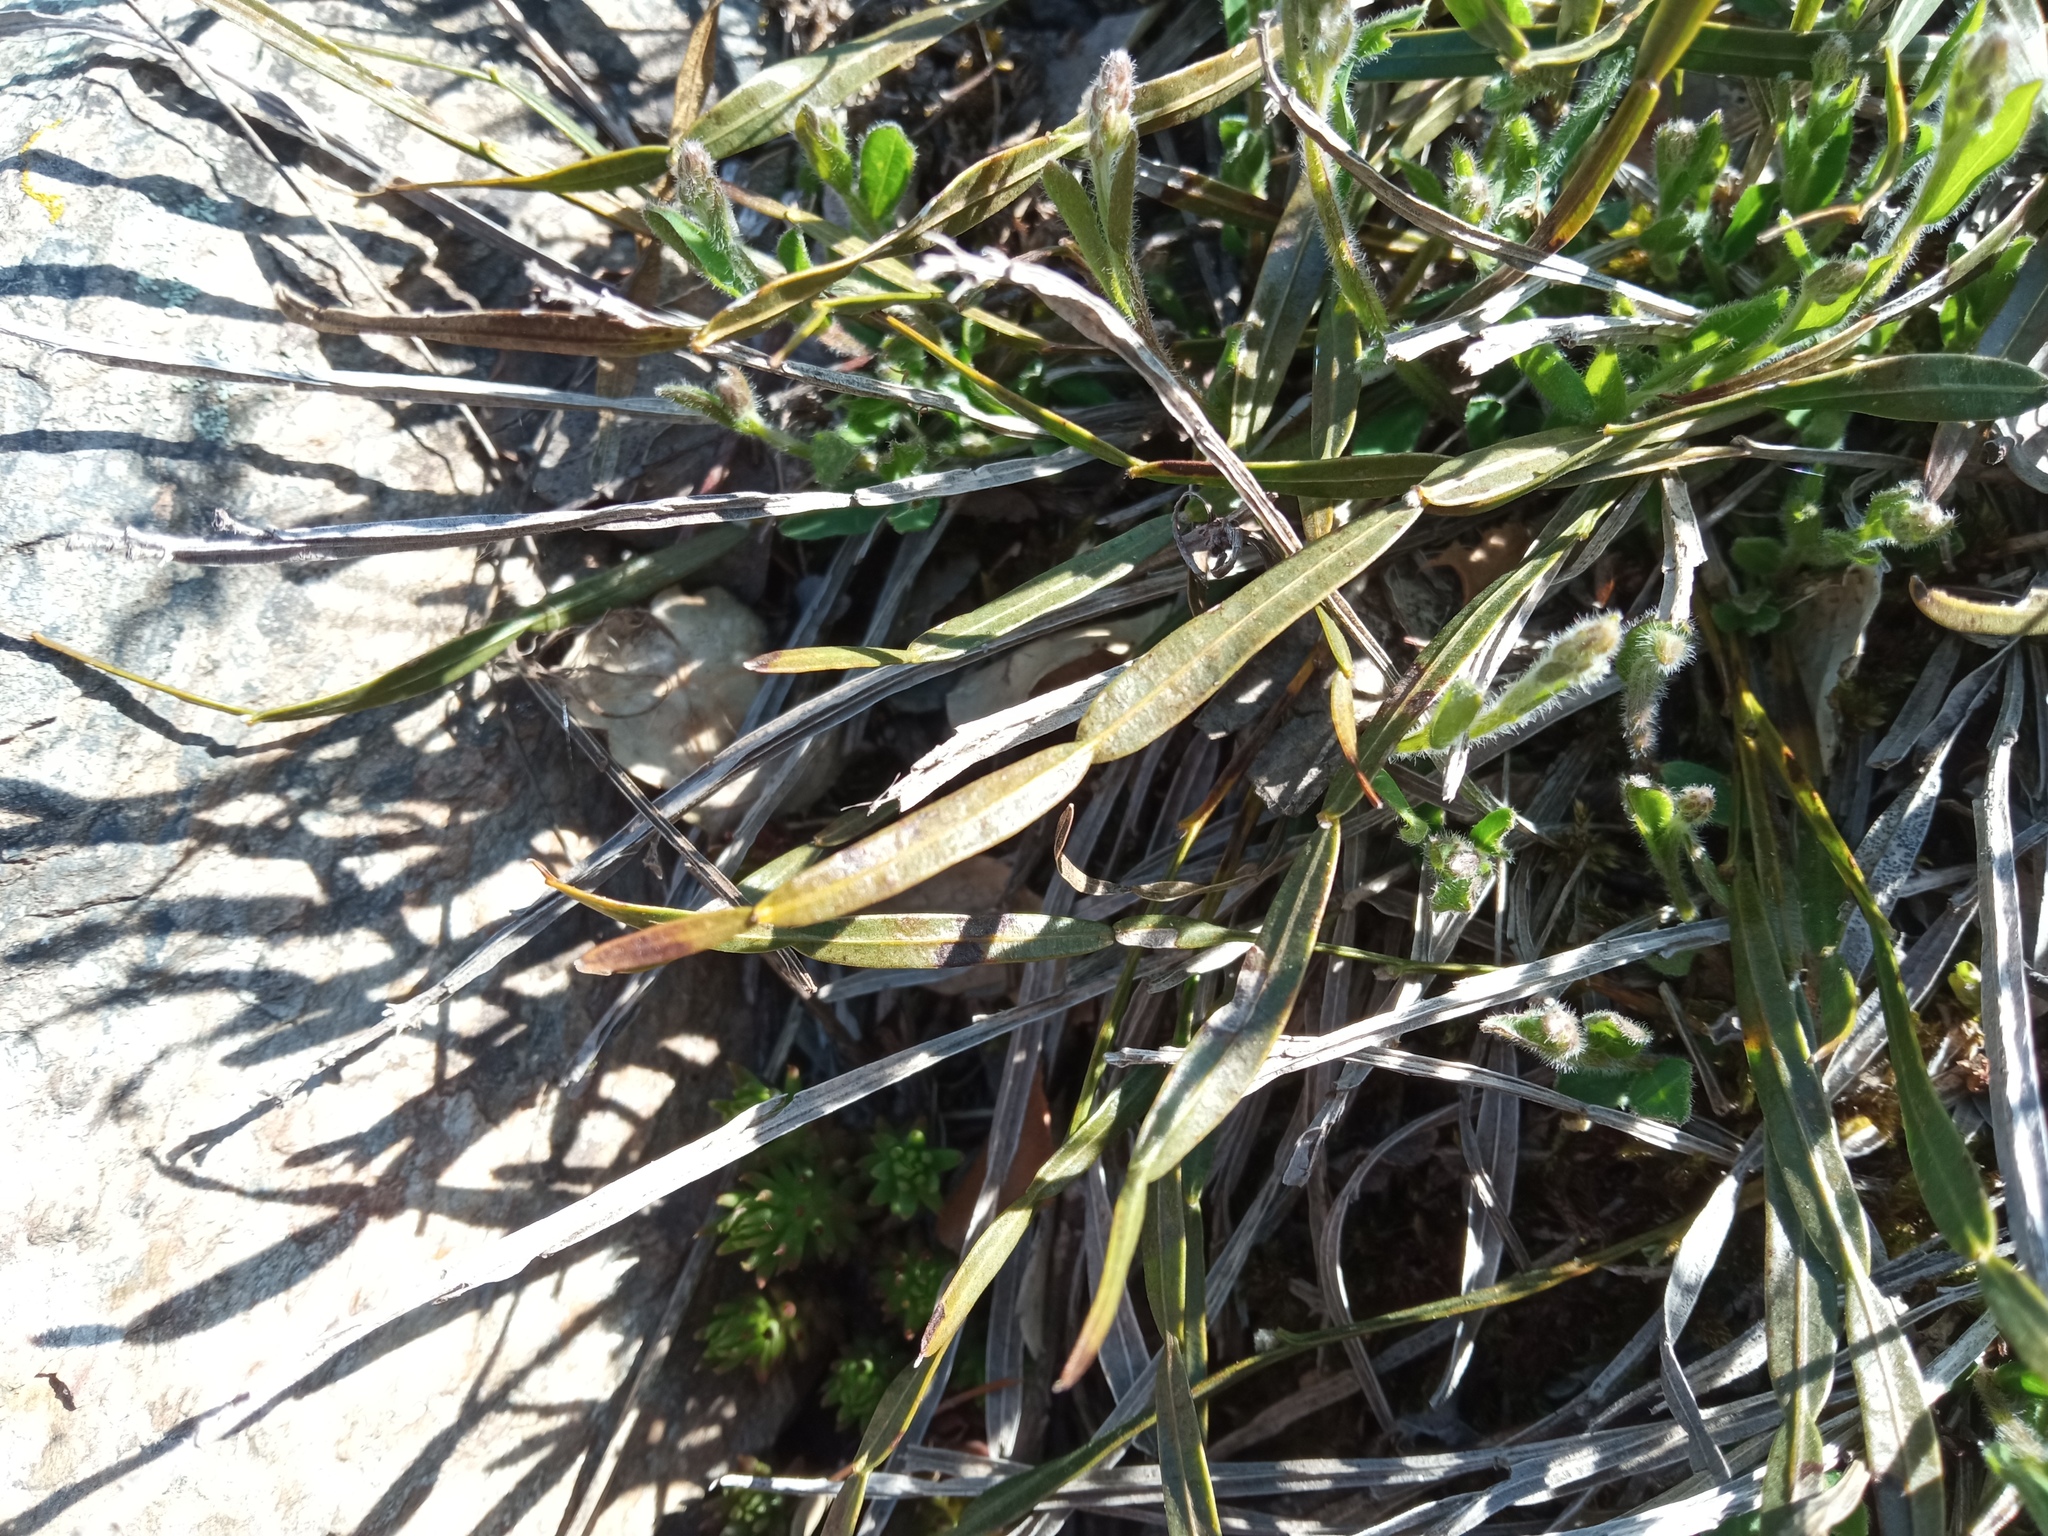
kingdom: Plantae
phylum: Tracheophyta
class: Magnoliopsida
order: Fabales
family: Fabaceae
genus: Genista
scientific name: Genista sagittalis
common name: Winged greenweed
